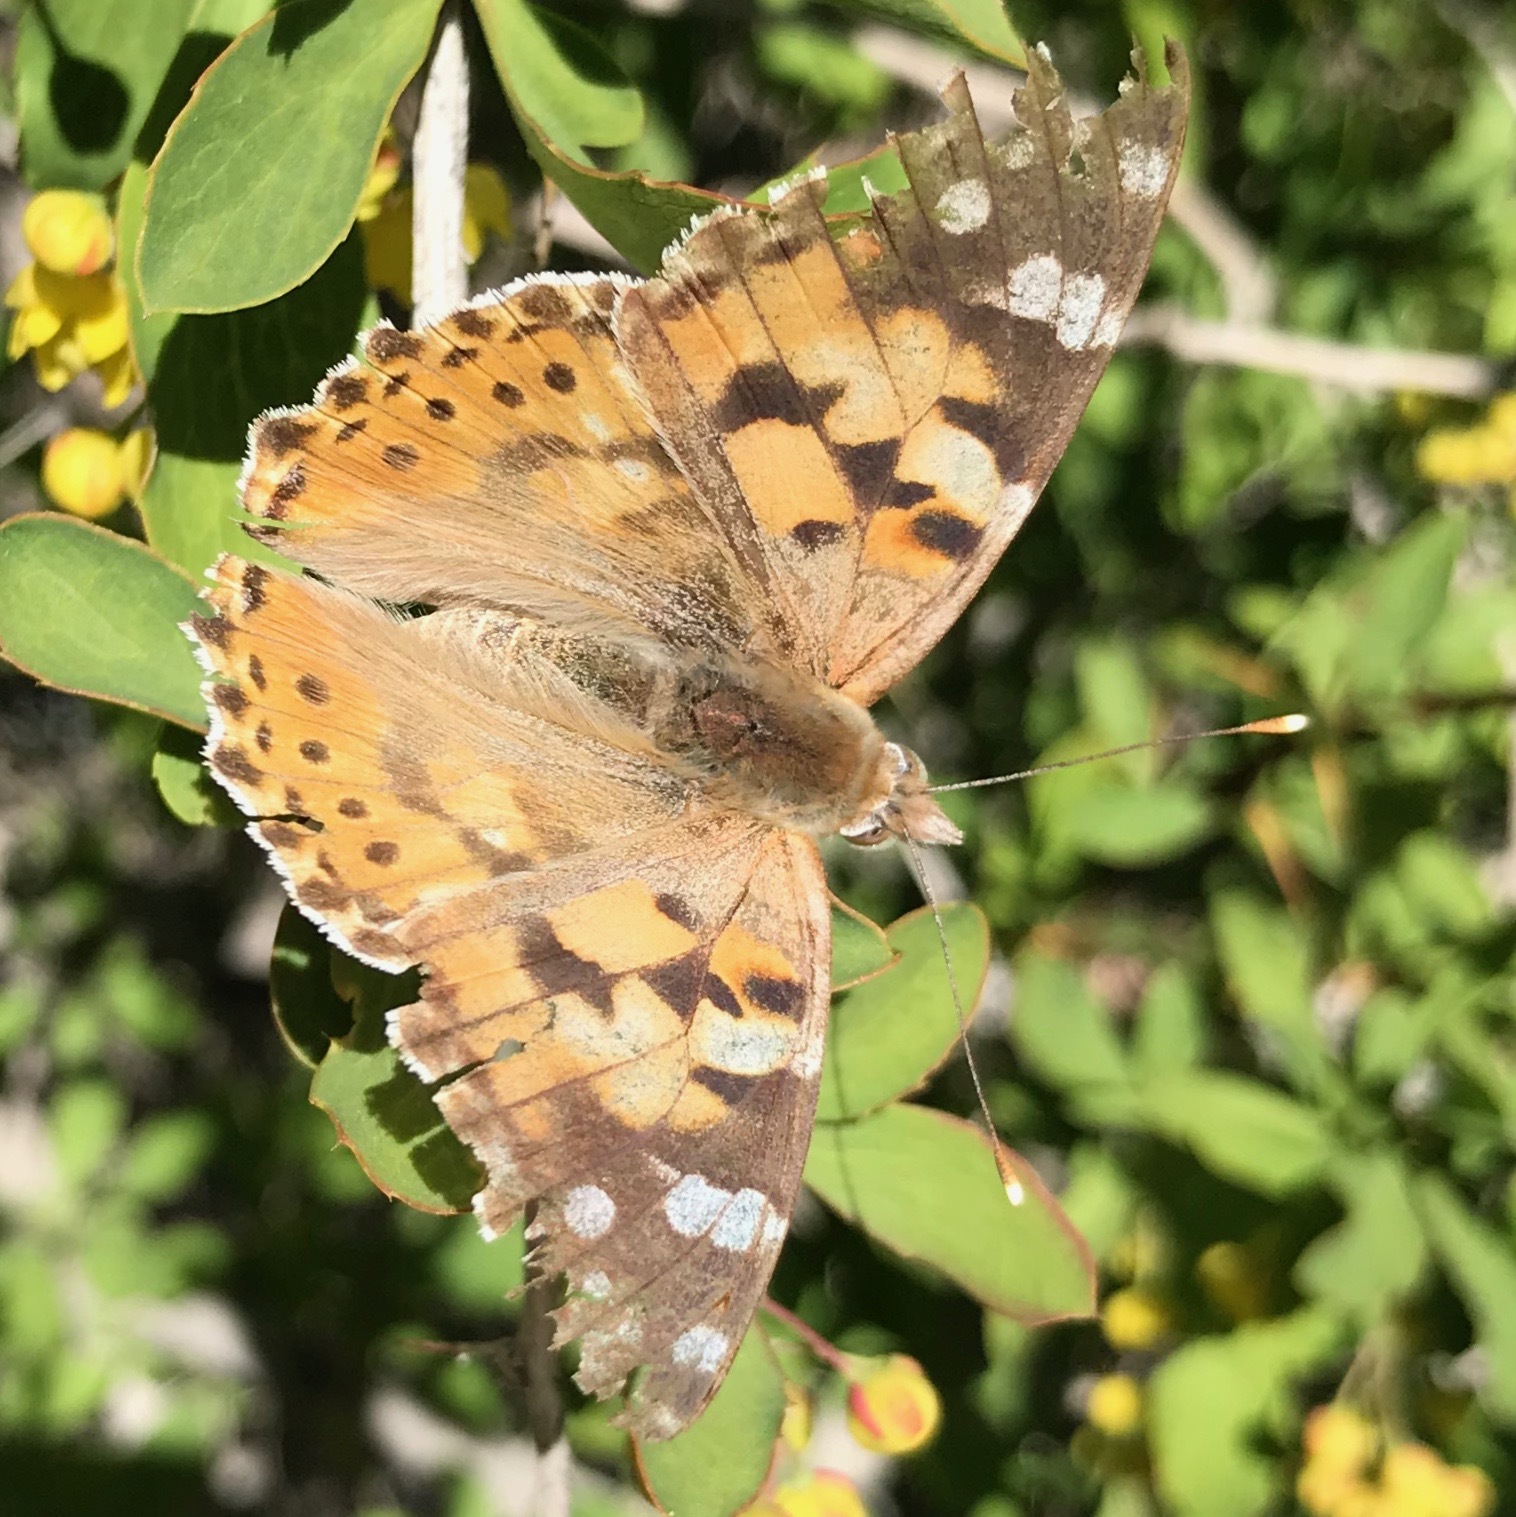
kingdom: Animalia
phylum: Arthropoda
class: Insecta
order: Lepidoptera
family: Nymphalidae
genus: Vanessa
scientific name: Vanessa cardui
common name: Painted lady
